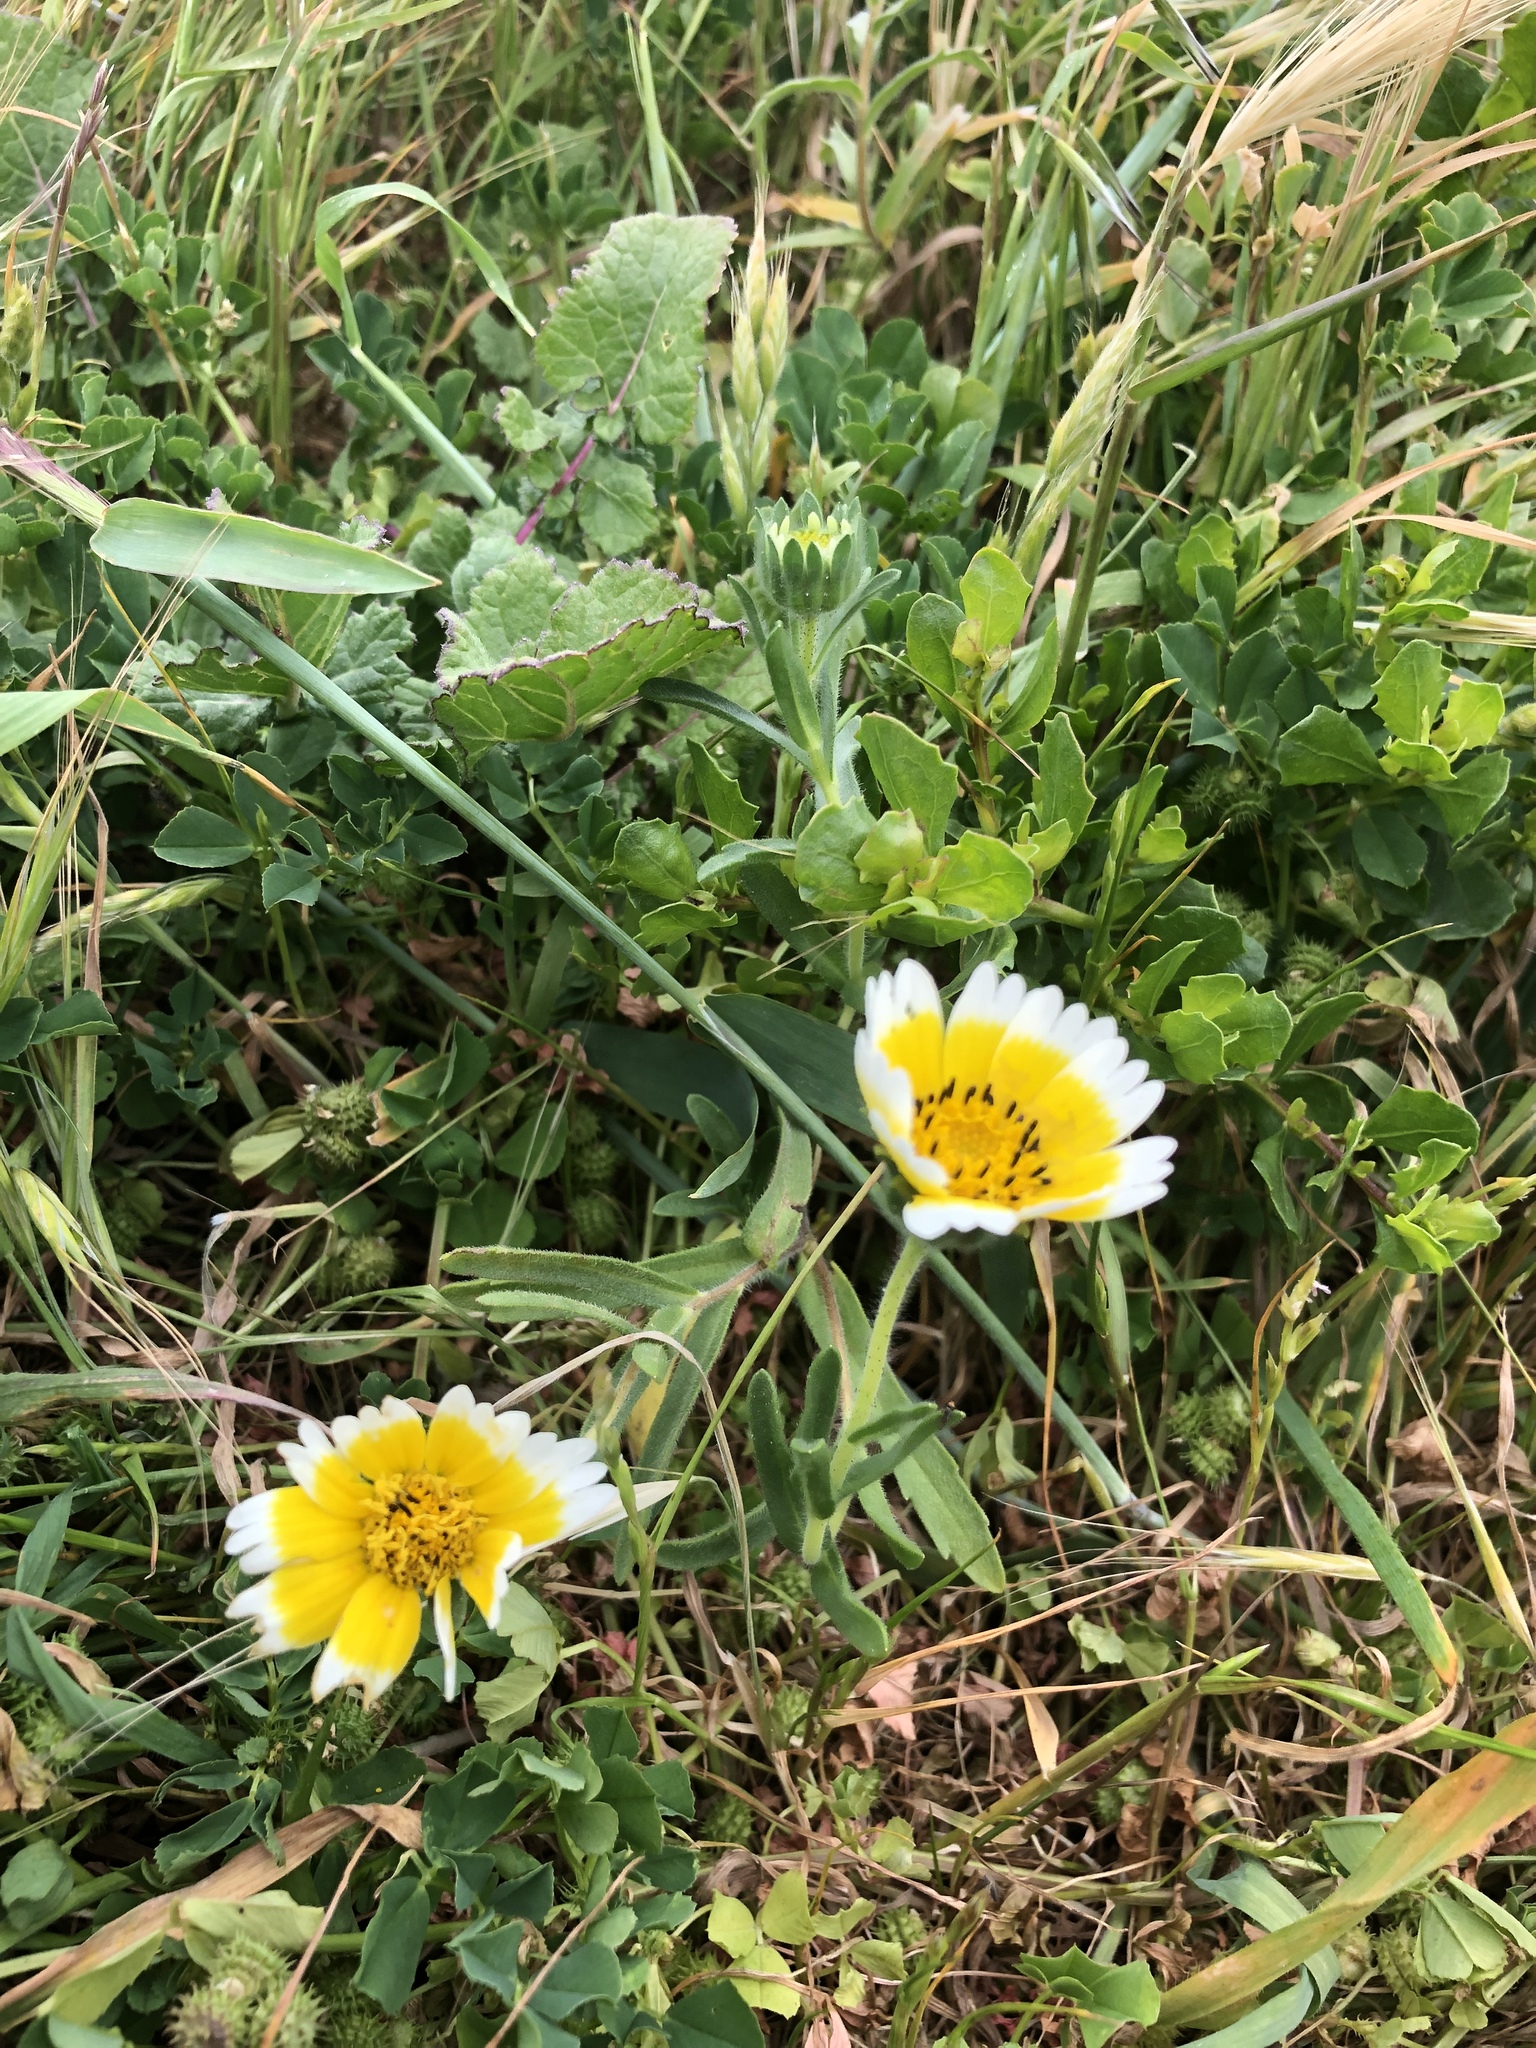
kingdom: Plantae
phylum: Tracheophyta
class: Magnoliopsida
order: Asterales
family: Asteraceae
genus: Layia
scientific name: Layia platyglossa
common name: Tidy-tips
